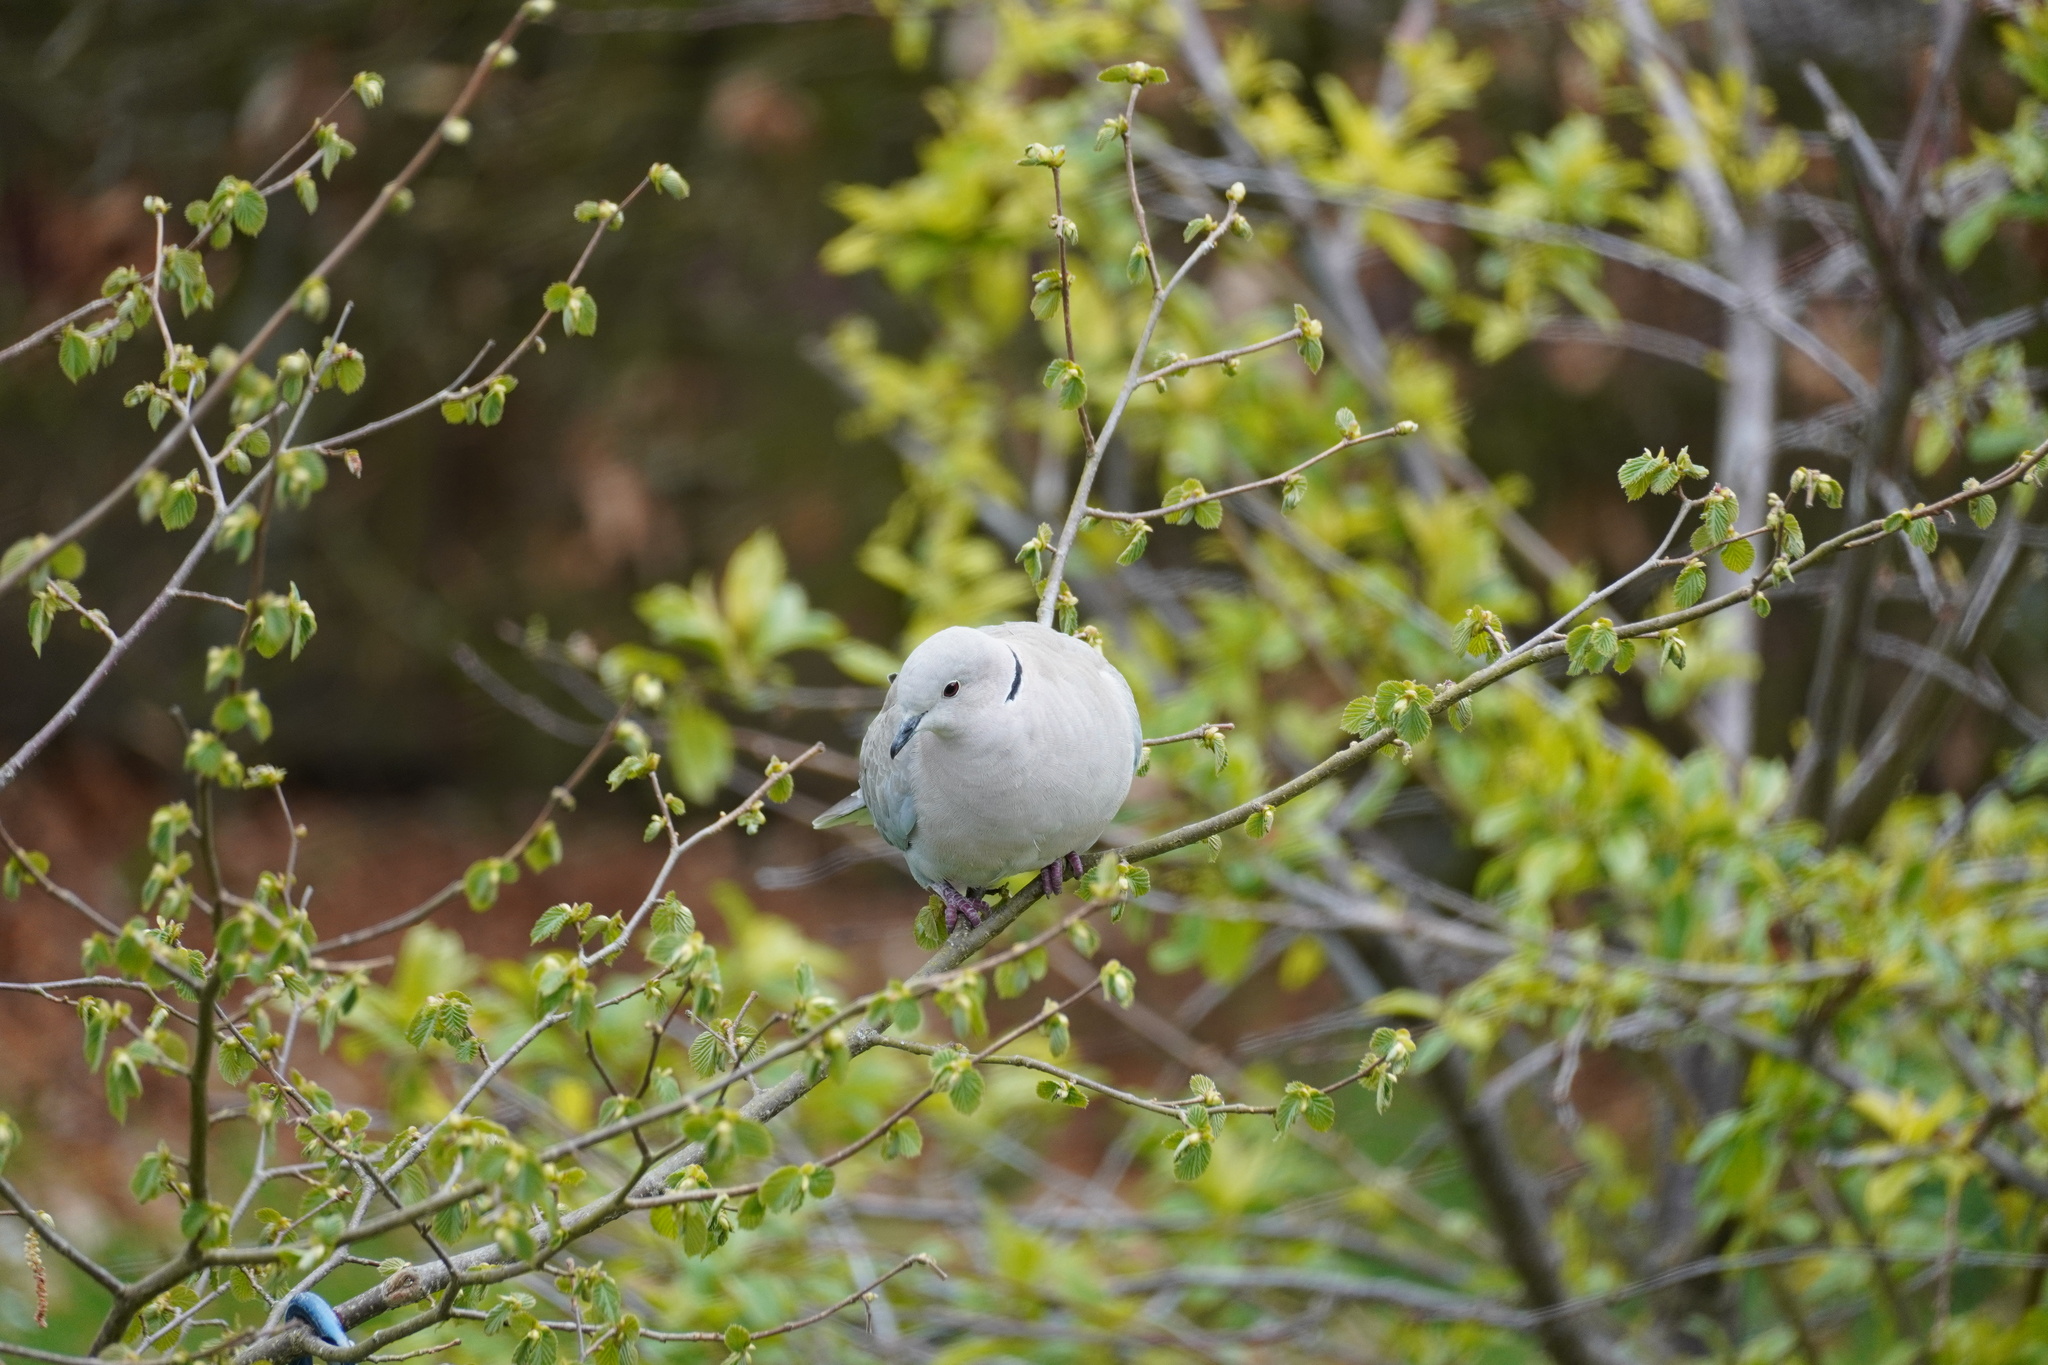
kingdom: Animalia
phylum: Chordata
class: Aves
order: Columbiformes
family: Columbidae
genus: Streptopelia
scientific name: Streptopelia decaocto
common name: Eurasian collared dove
